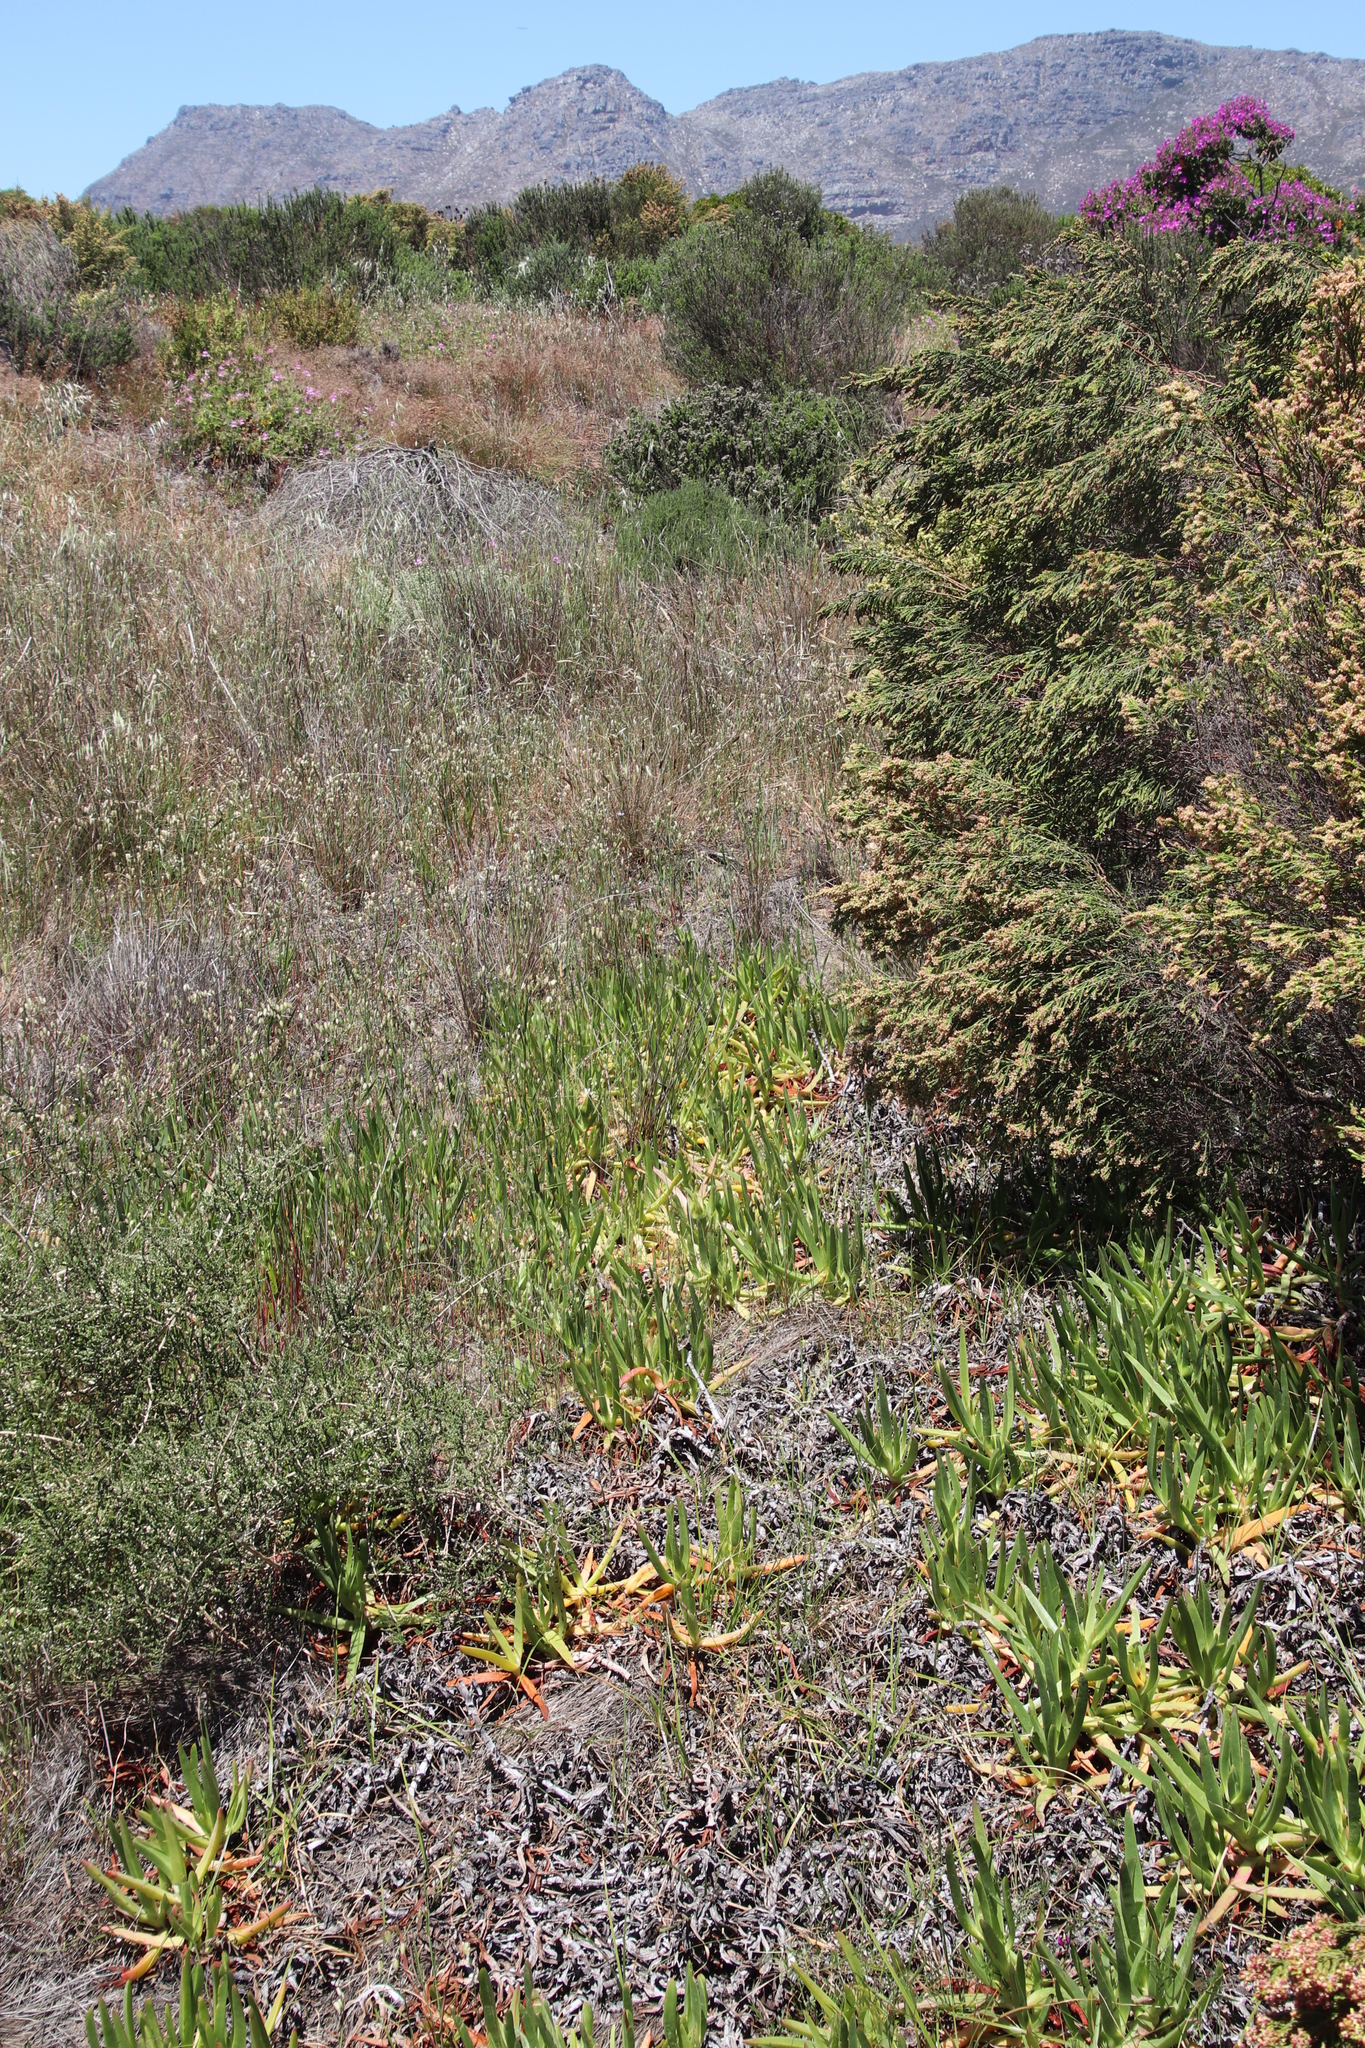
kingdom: Plantae
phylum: Tracheophyta
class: Liliopsida
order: Poales
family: Poaceae
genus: Briza
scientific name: Briza maxima
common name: Big quakinggrass
